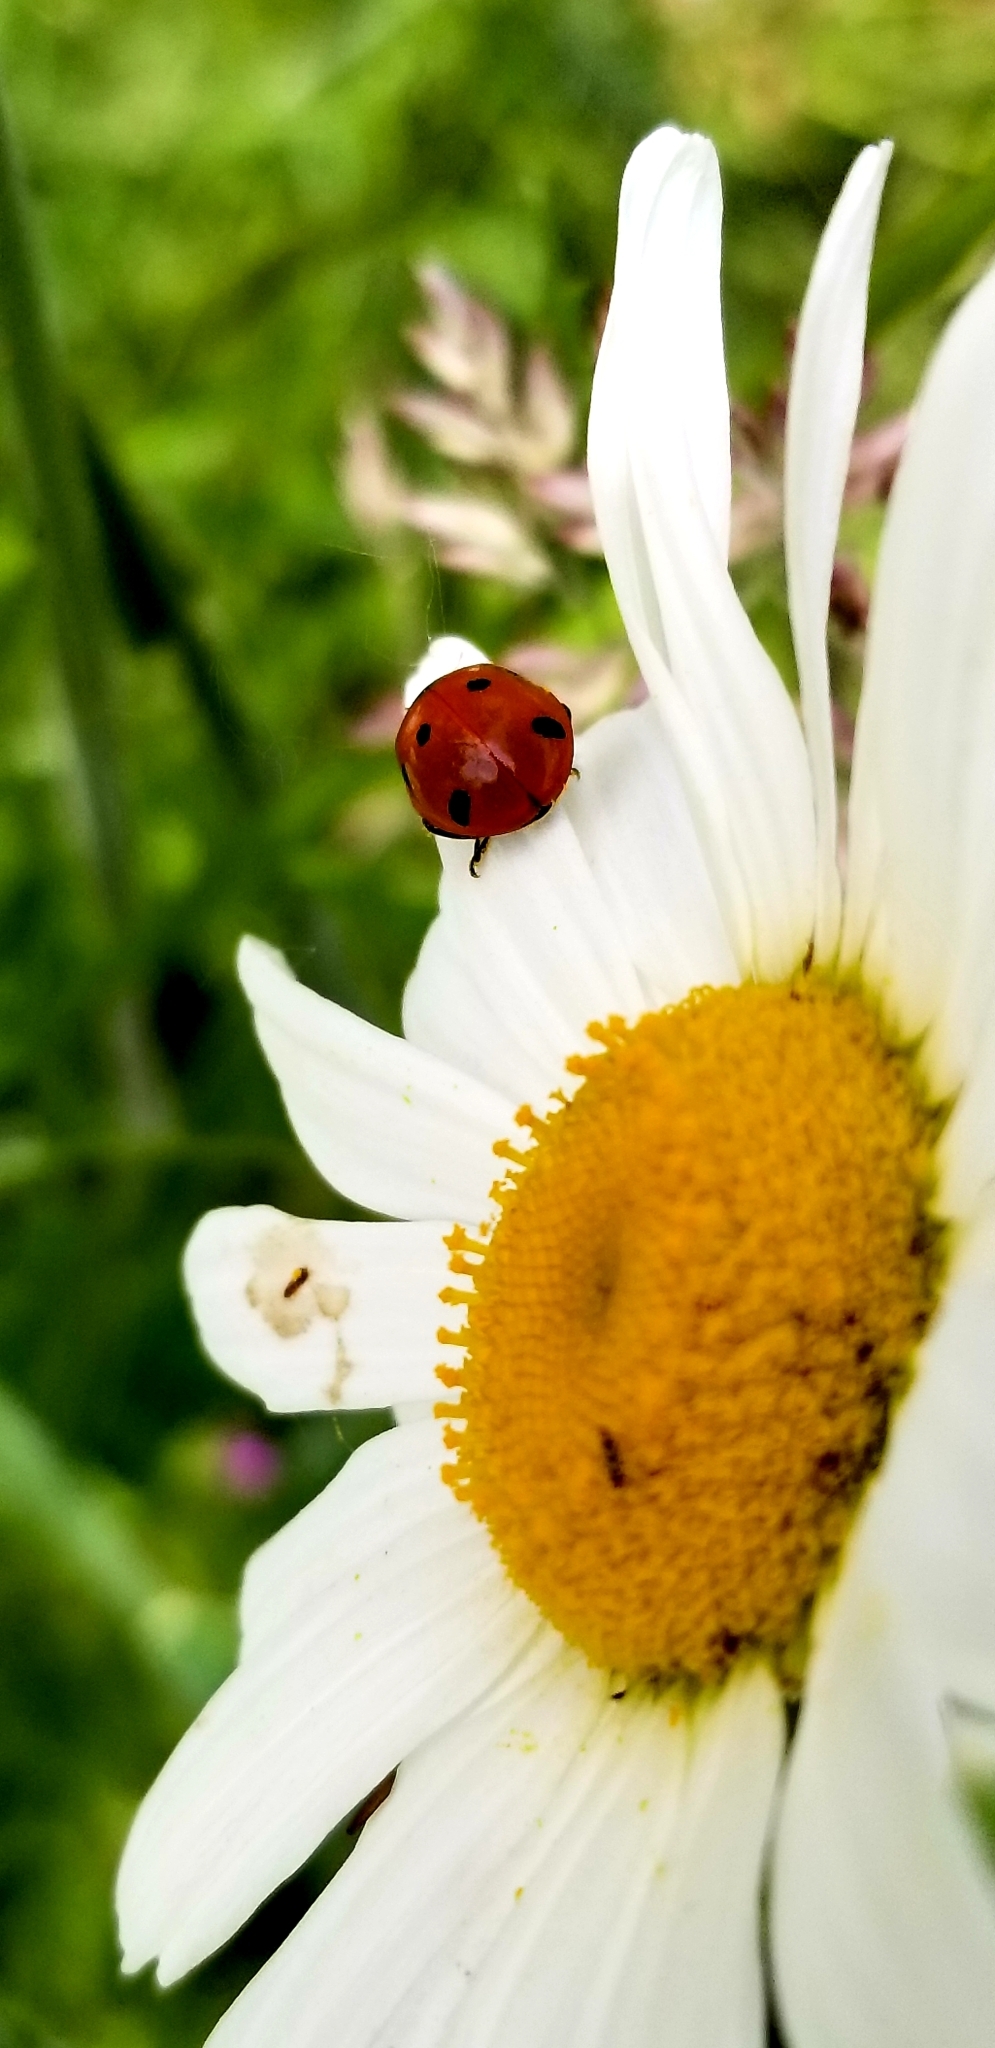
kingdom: Animalia
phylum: Arthropoda
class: Insecta
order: Coleoptera
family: Coccinellidae
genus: Coccinella
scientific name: Coccinella septempunctata
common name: Sevenspotted lady beetle
